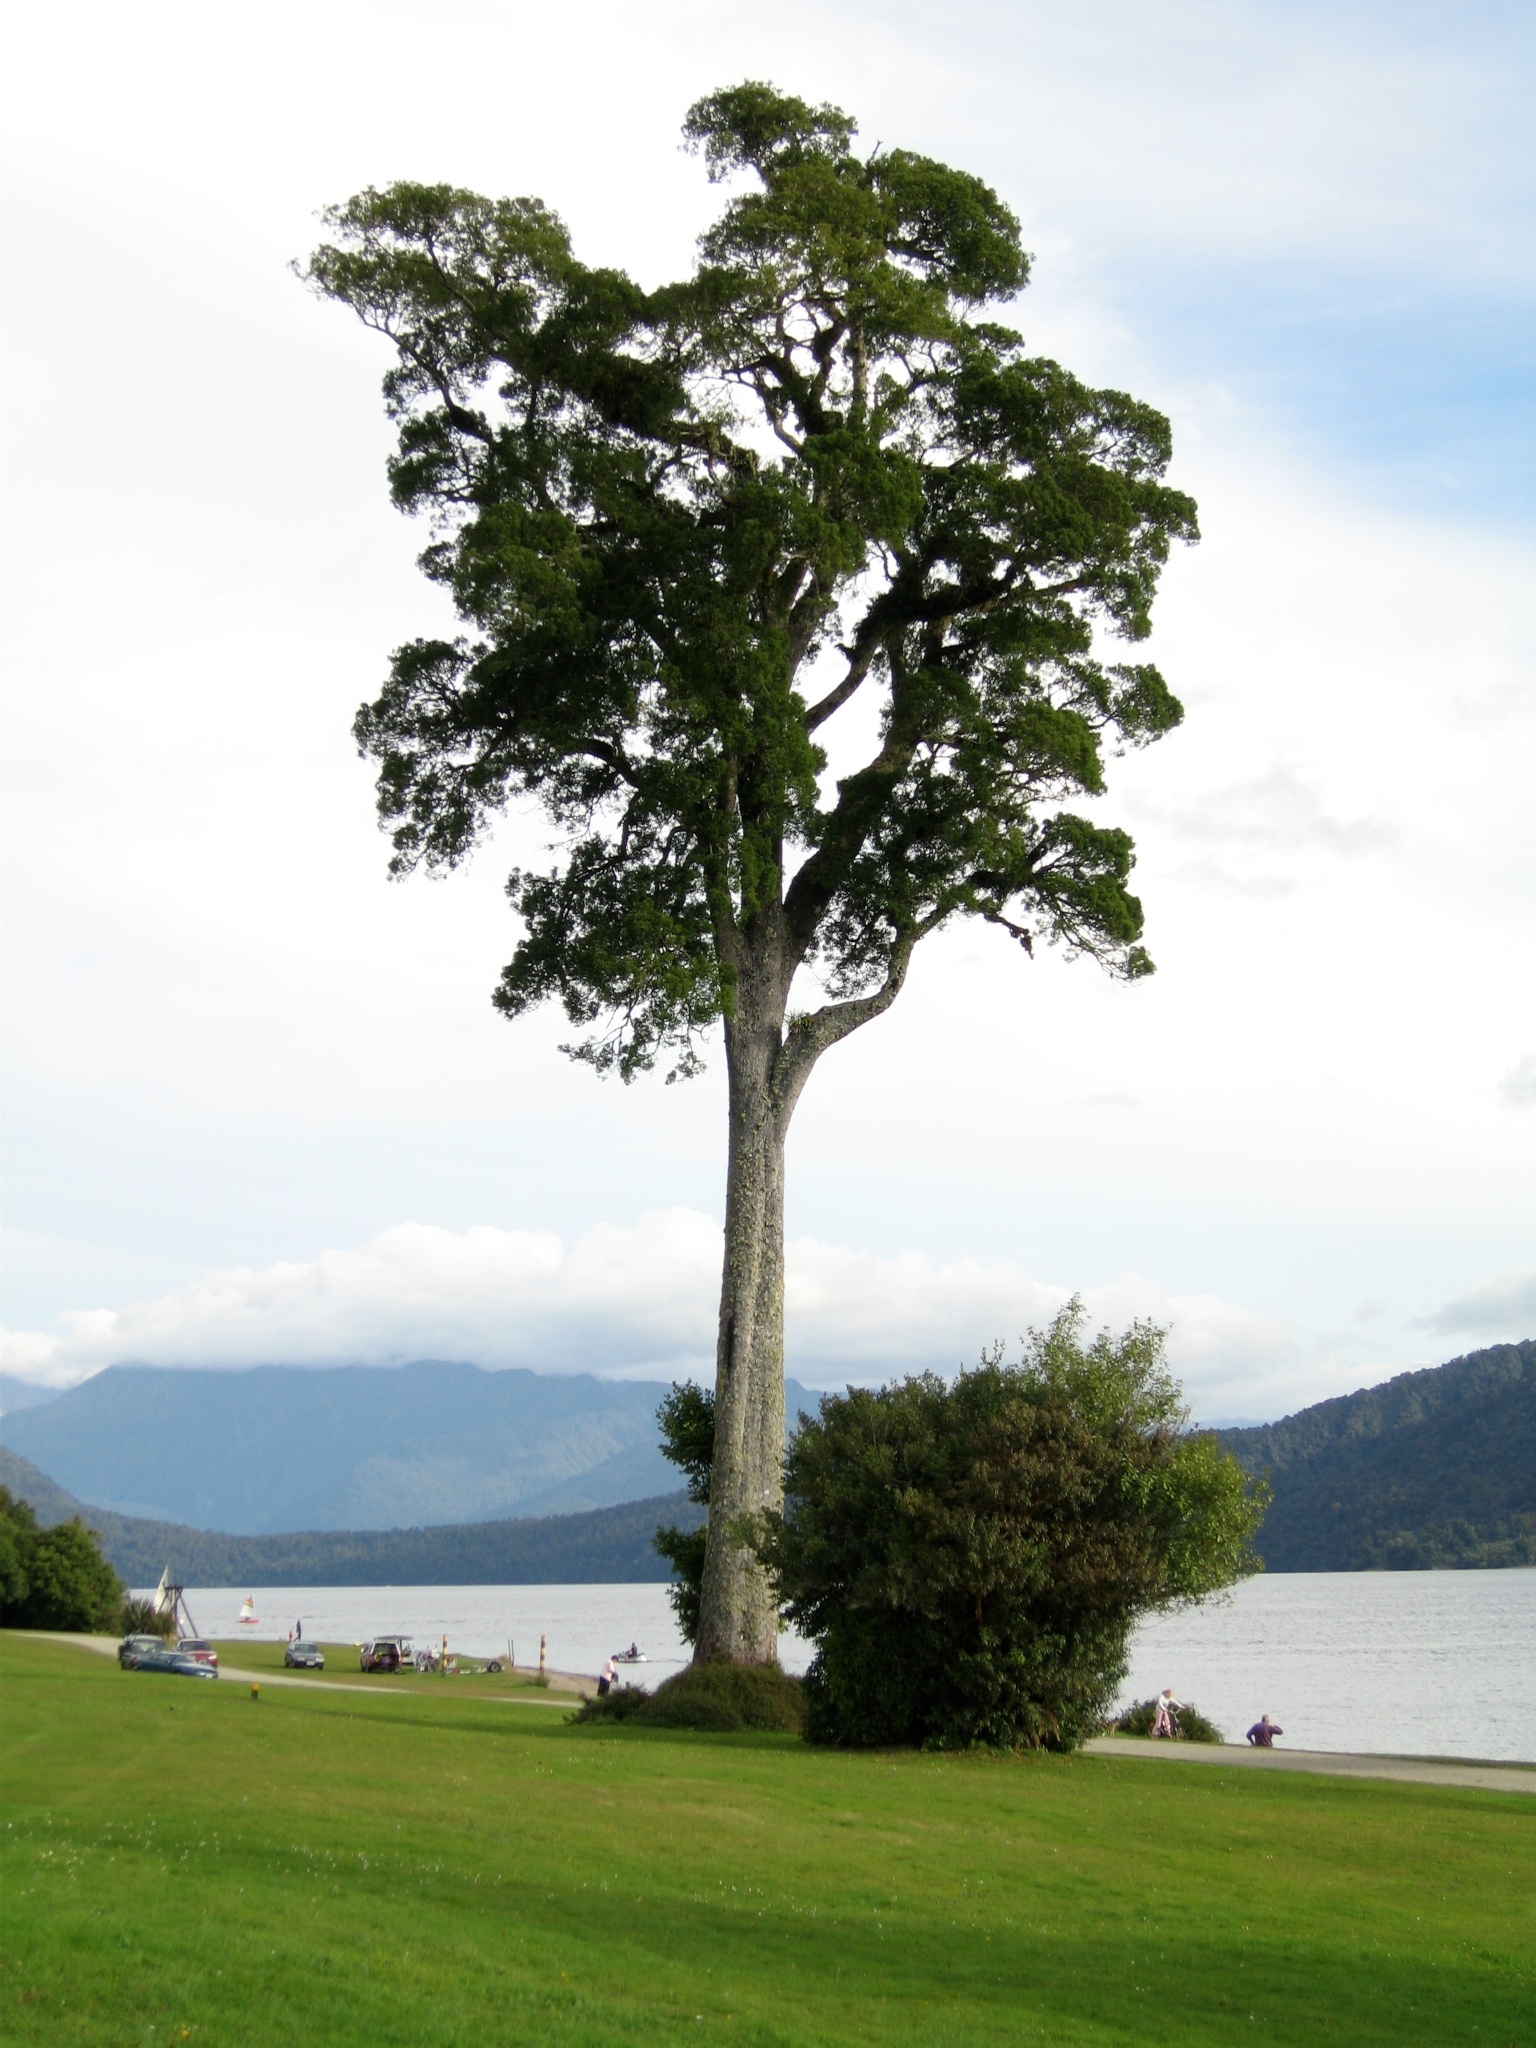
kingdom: Plantae
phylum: Tracheophyta
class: Pinopsida
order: Pinales
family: Podocarpaceae
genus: Dacrycarpus
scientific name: Dacrycarpus dacrydioides
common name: White pine
